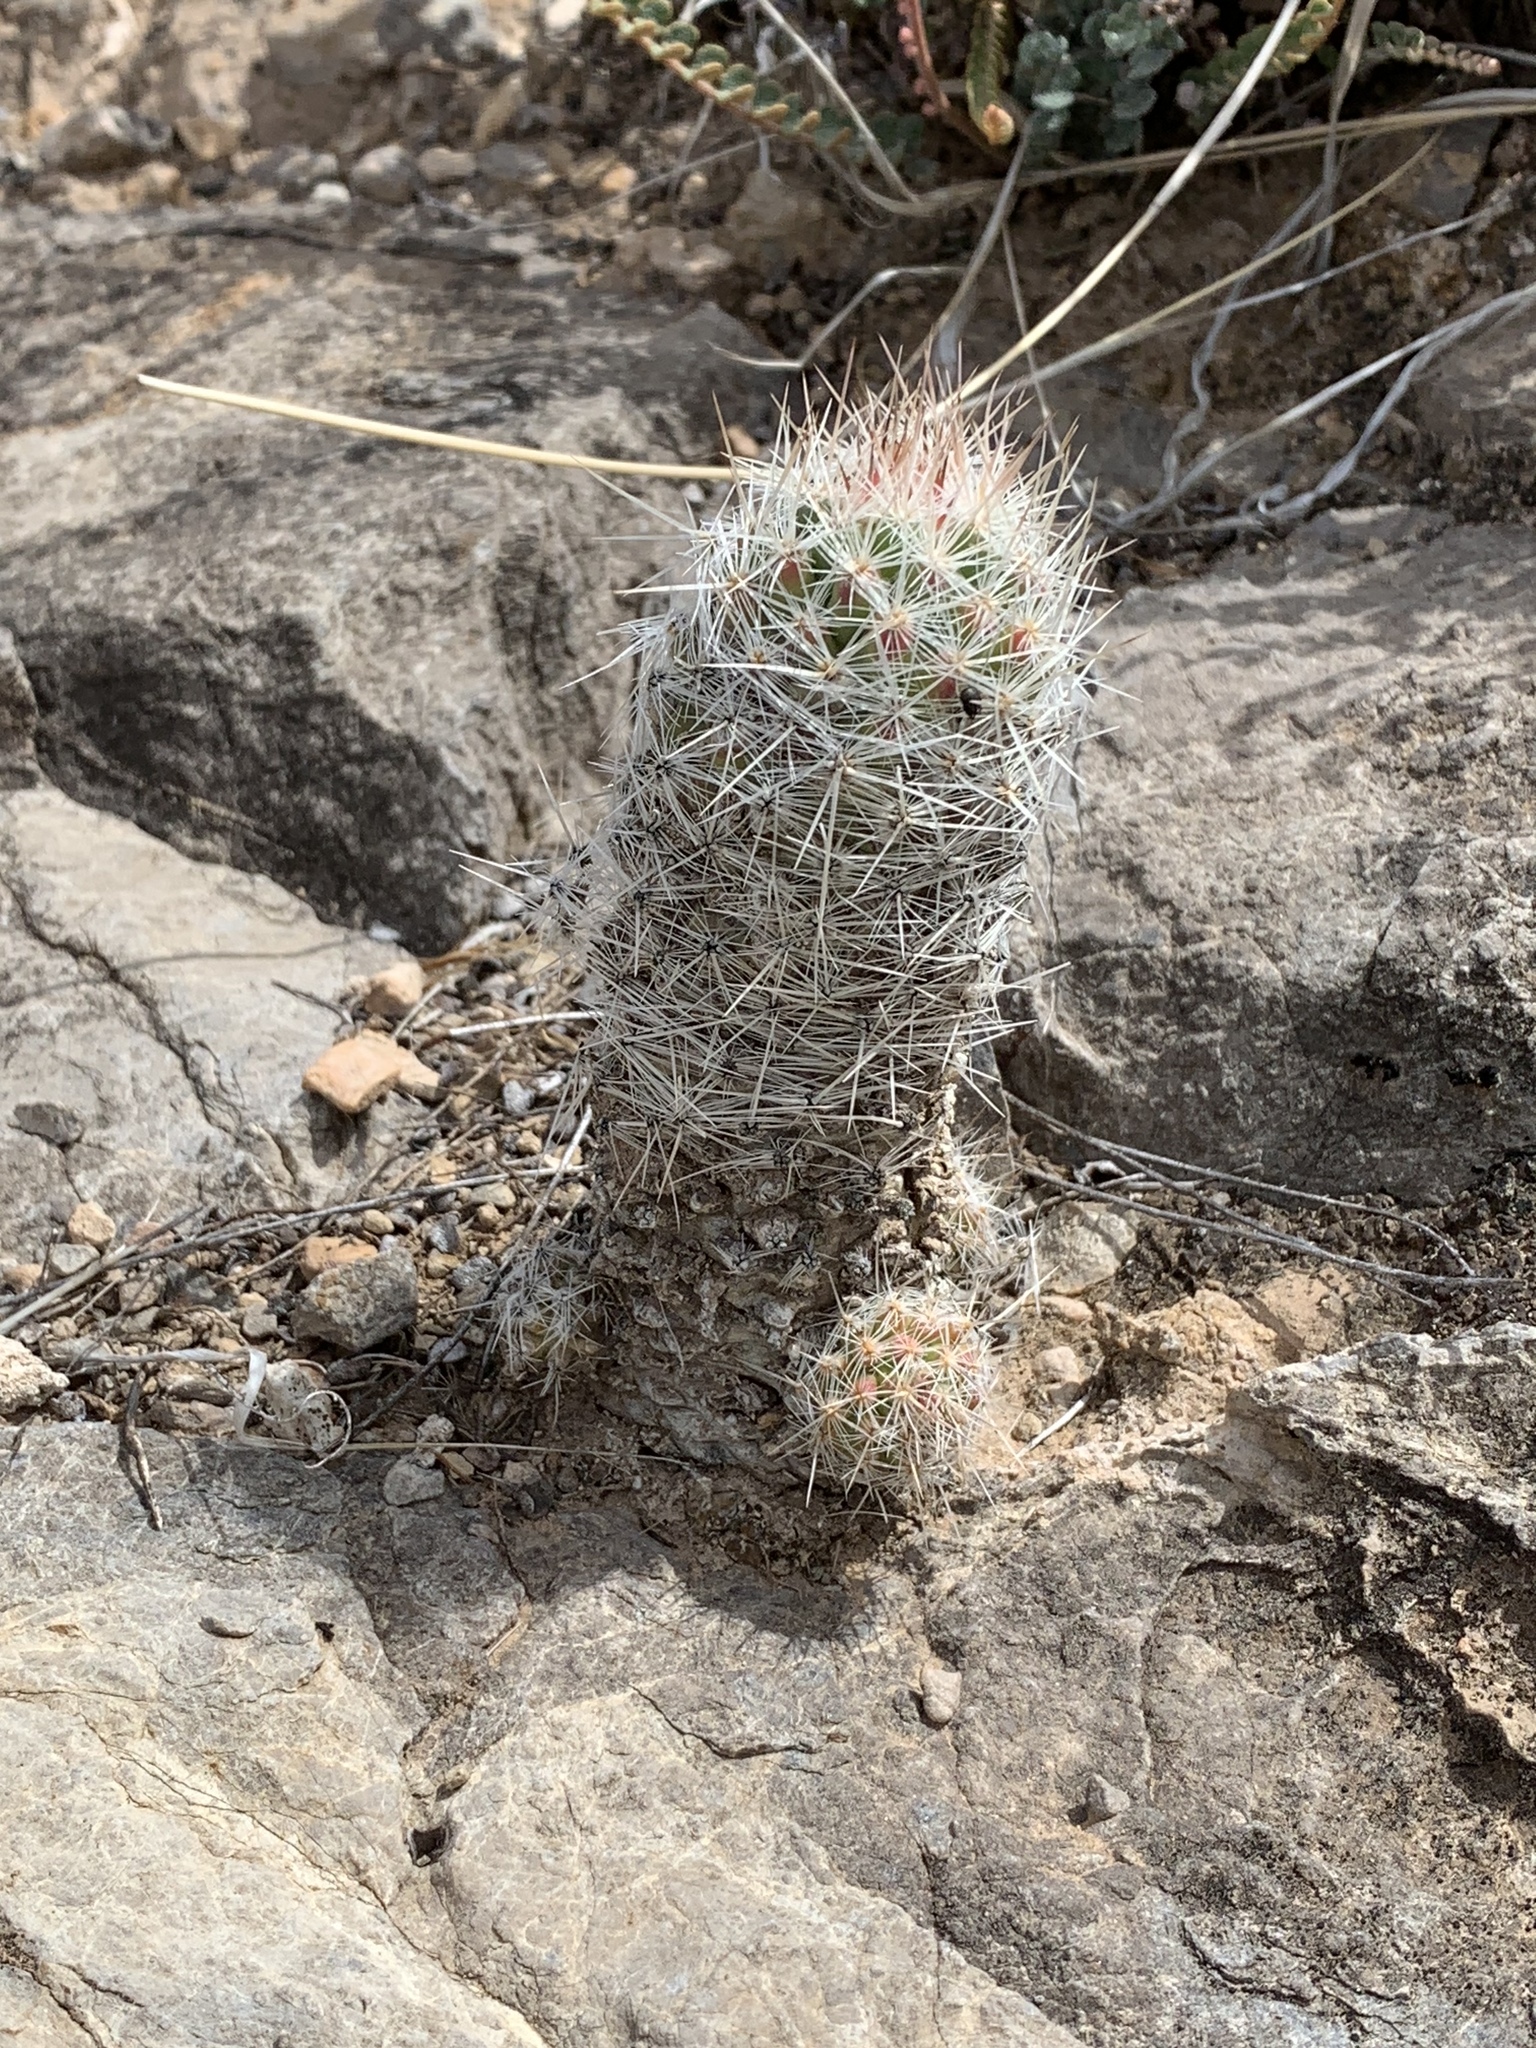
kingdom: Plantae
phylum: Tracheophyta
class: Magnoliopsida
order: Caryophyllales
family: Cactaceae
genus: Pelecyphora
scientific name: Pelecyphora tuberculosa
